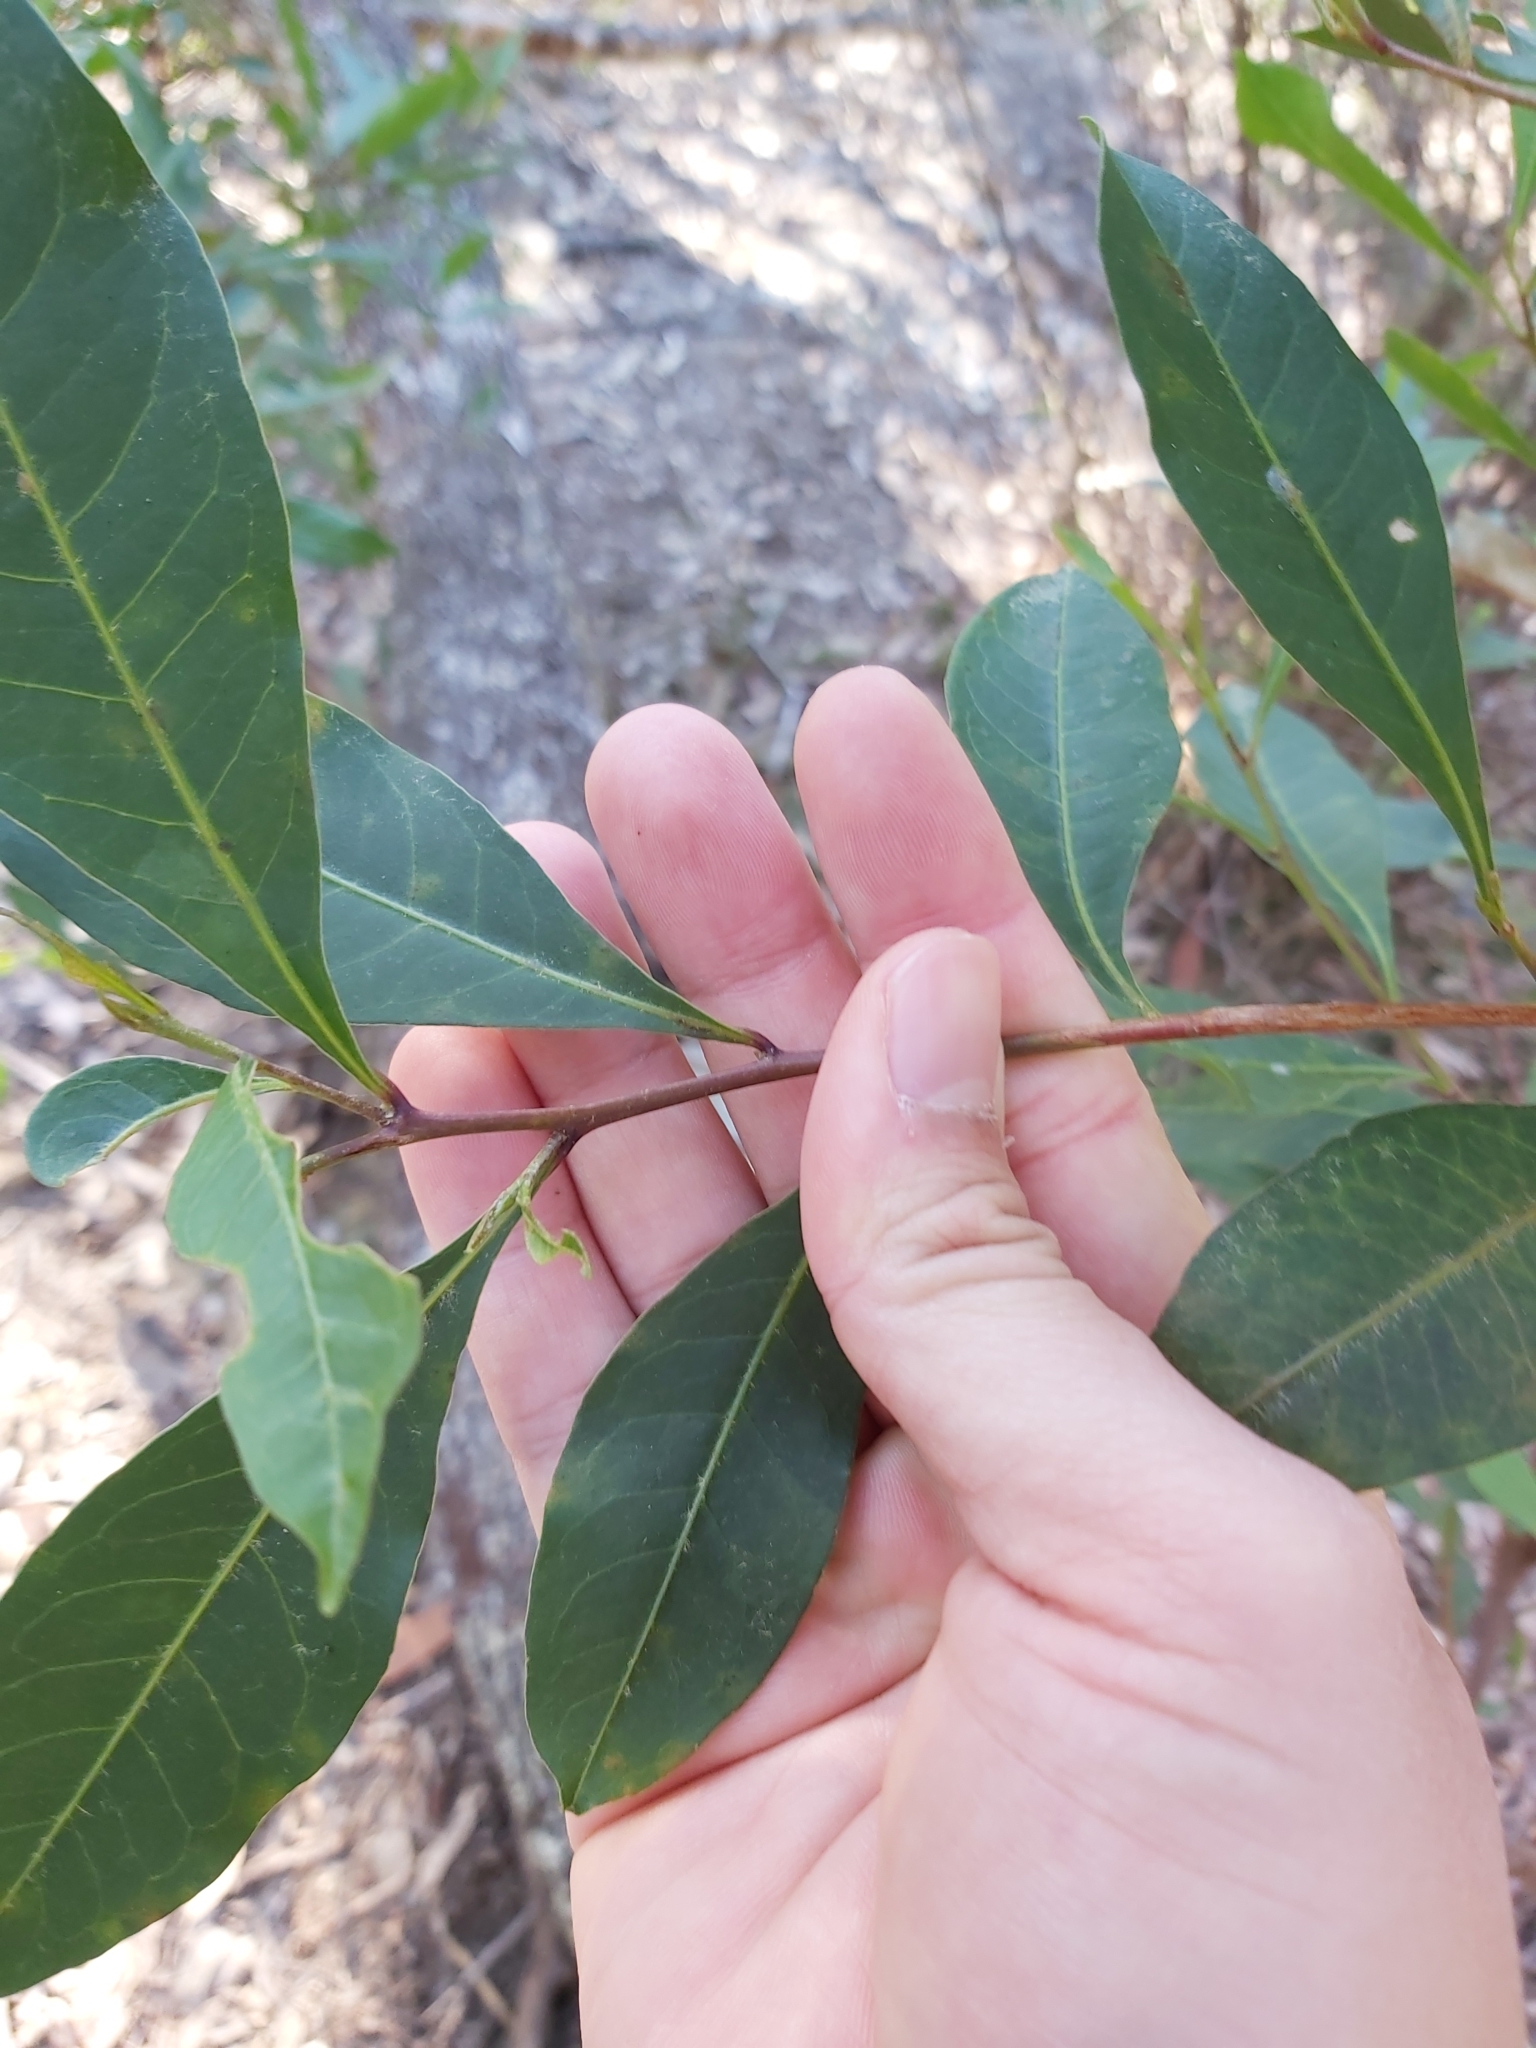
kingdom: Plantae
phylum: Tracheophyta
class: Magnoliopsida
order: Sapindales
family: Sapindaceae
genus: Dodonaea
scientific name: Dodonaea triquetra
